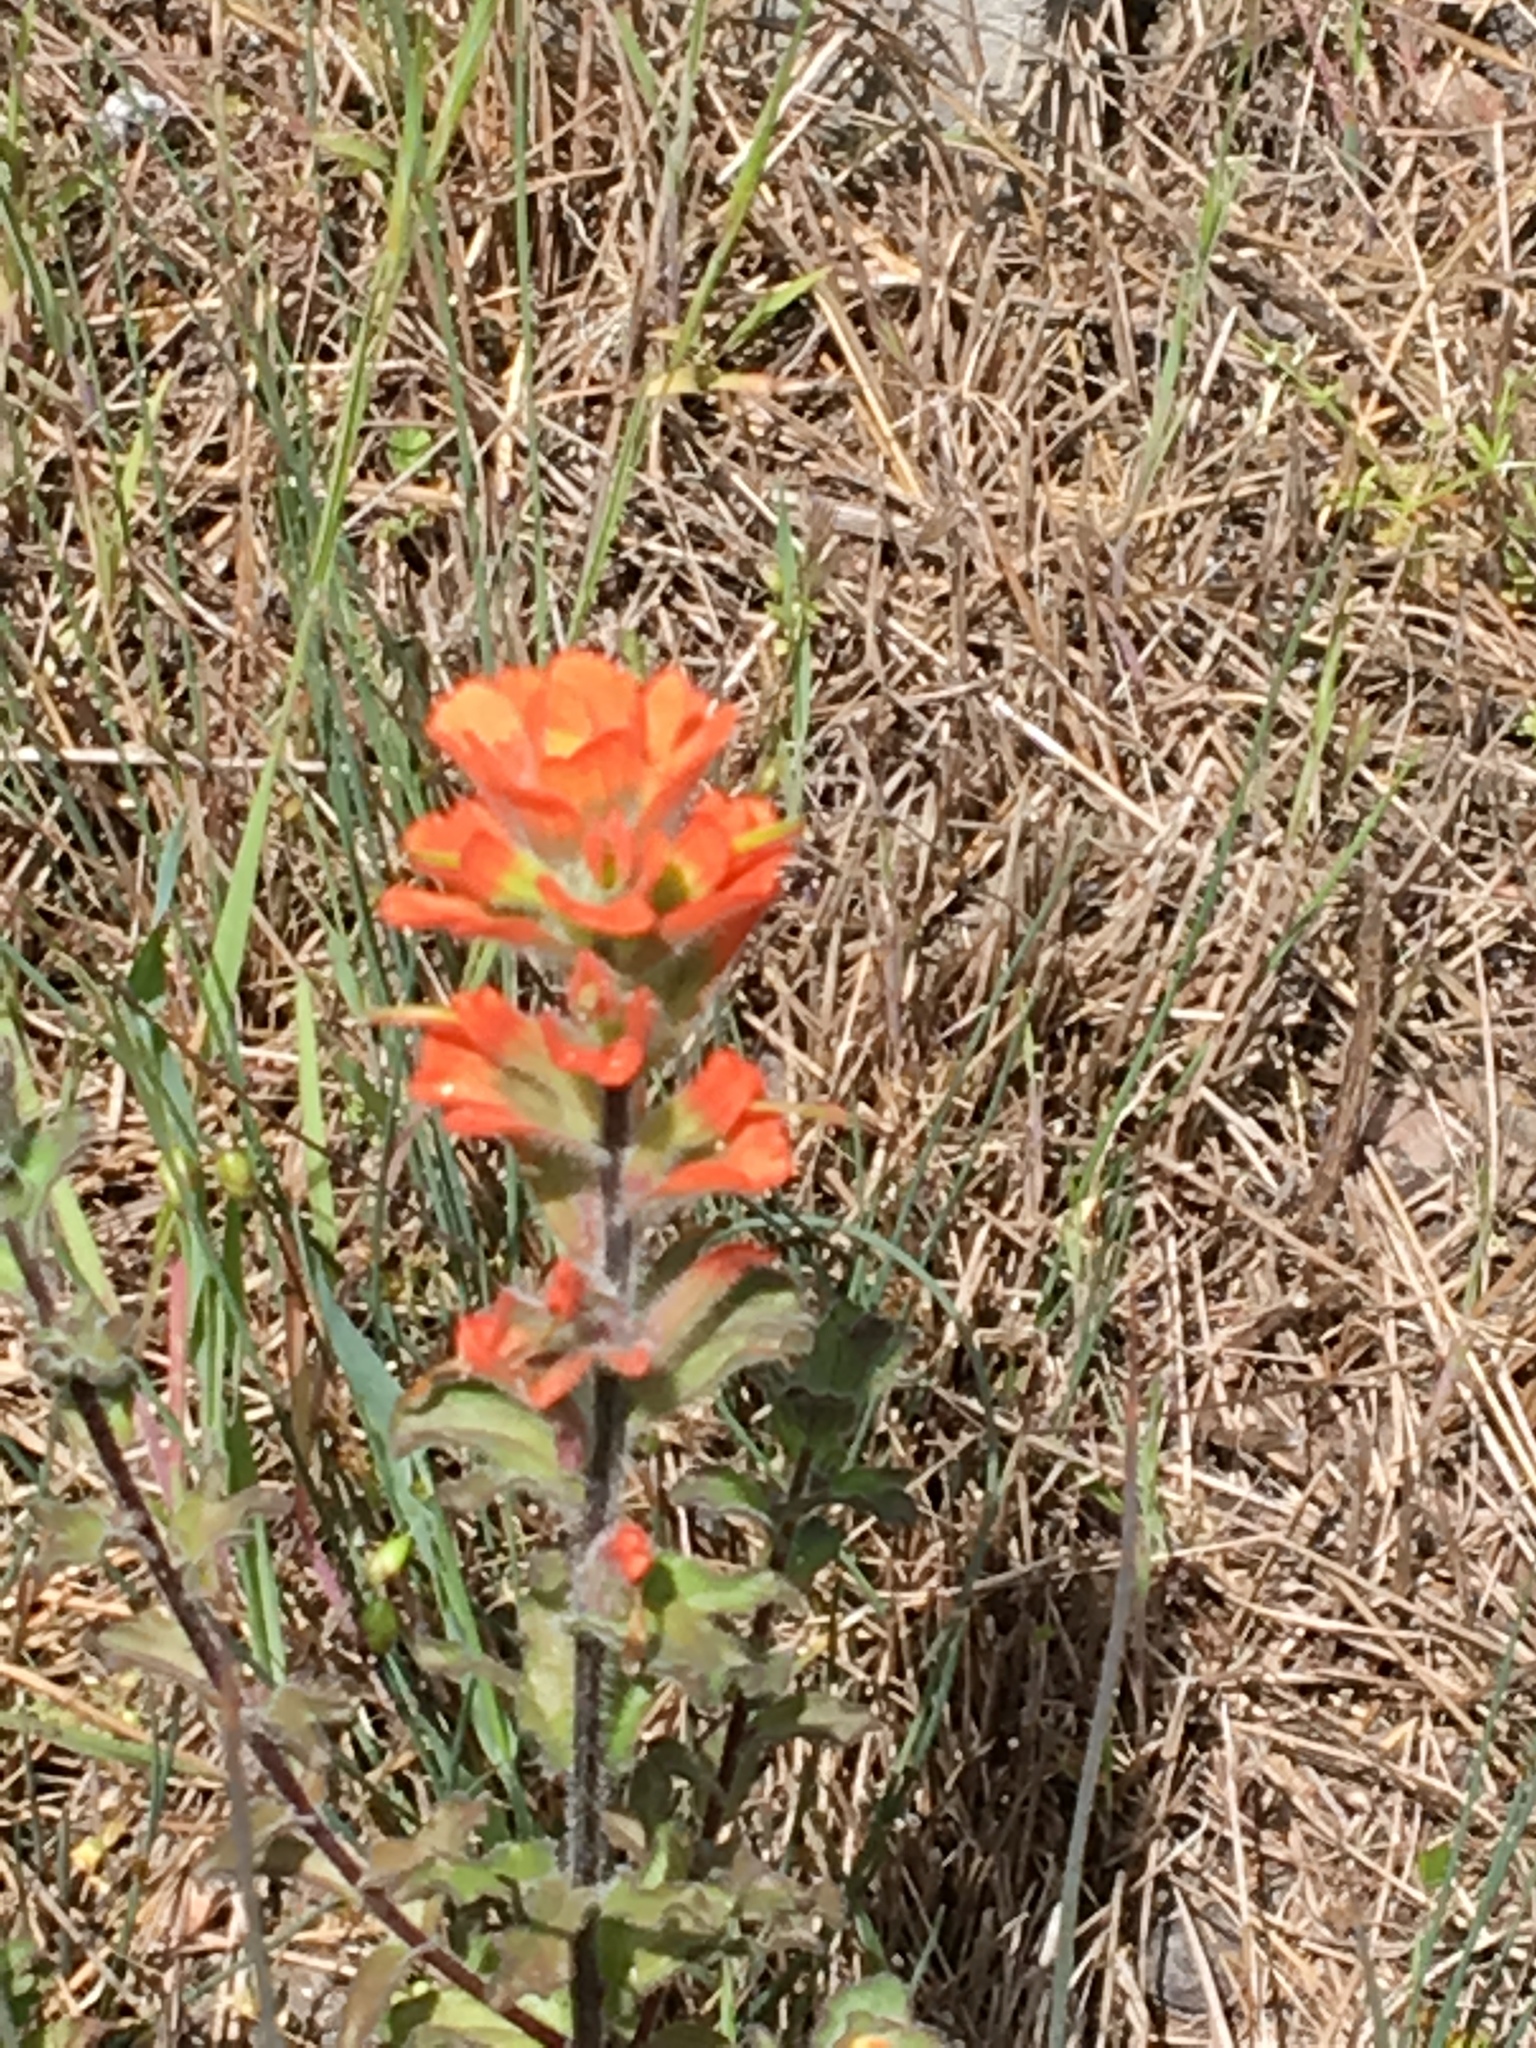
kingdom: Plantae
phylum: Tracheophyta
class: Magnoliopsida
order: Lamiales
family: Orobanchaceae
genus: Castilleja
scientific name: Castilleja latifolia
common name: Monterey indian paintbrush
